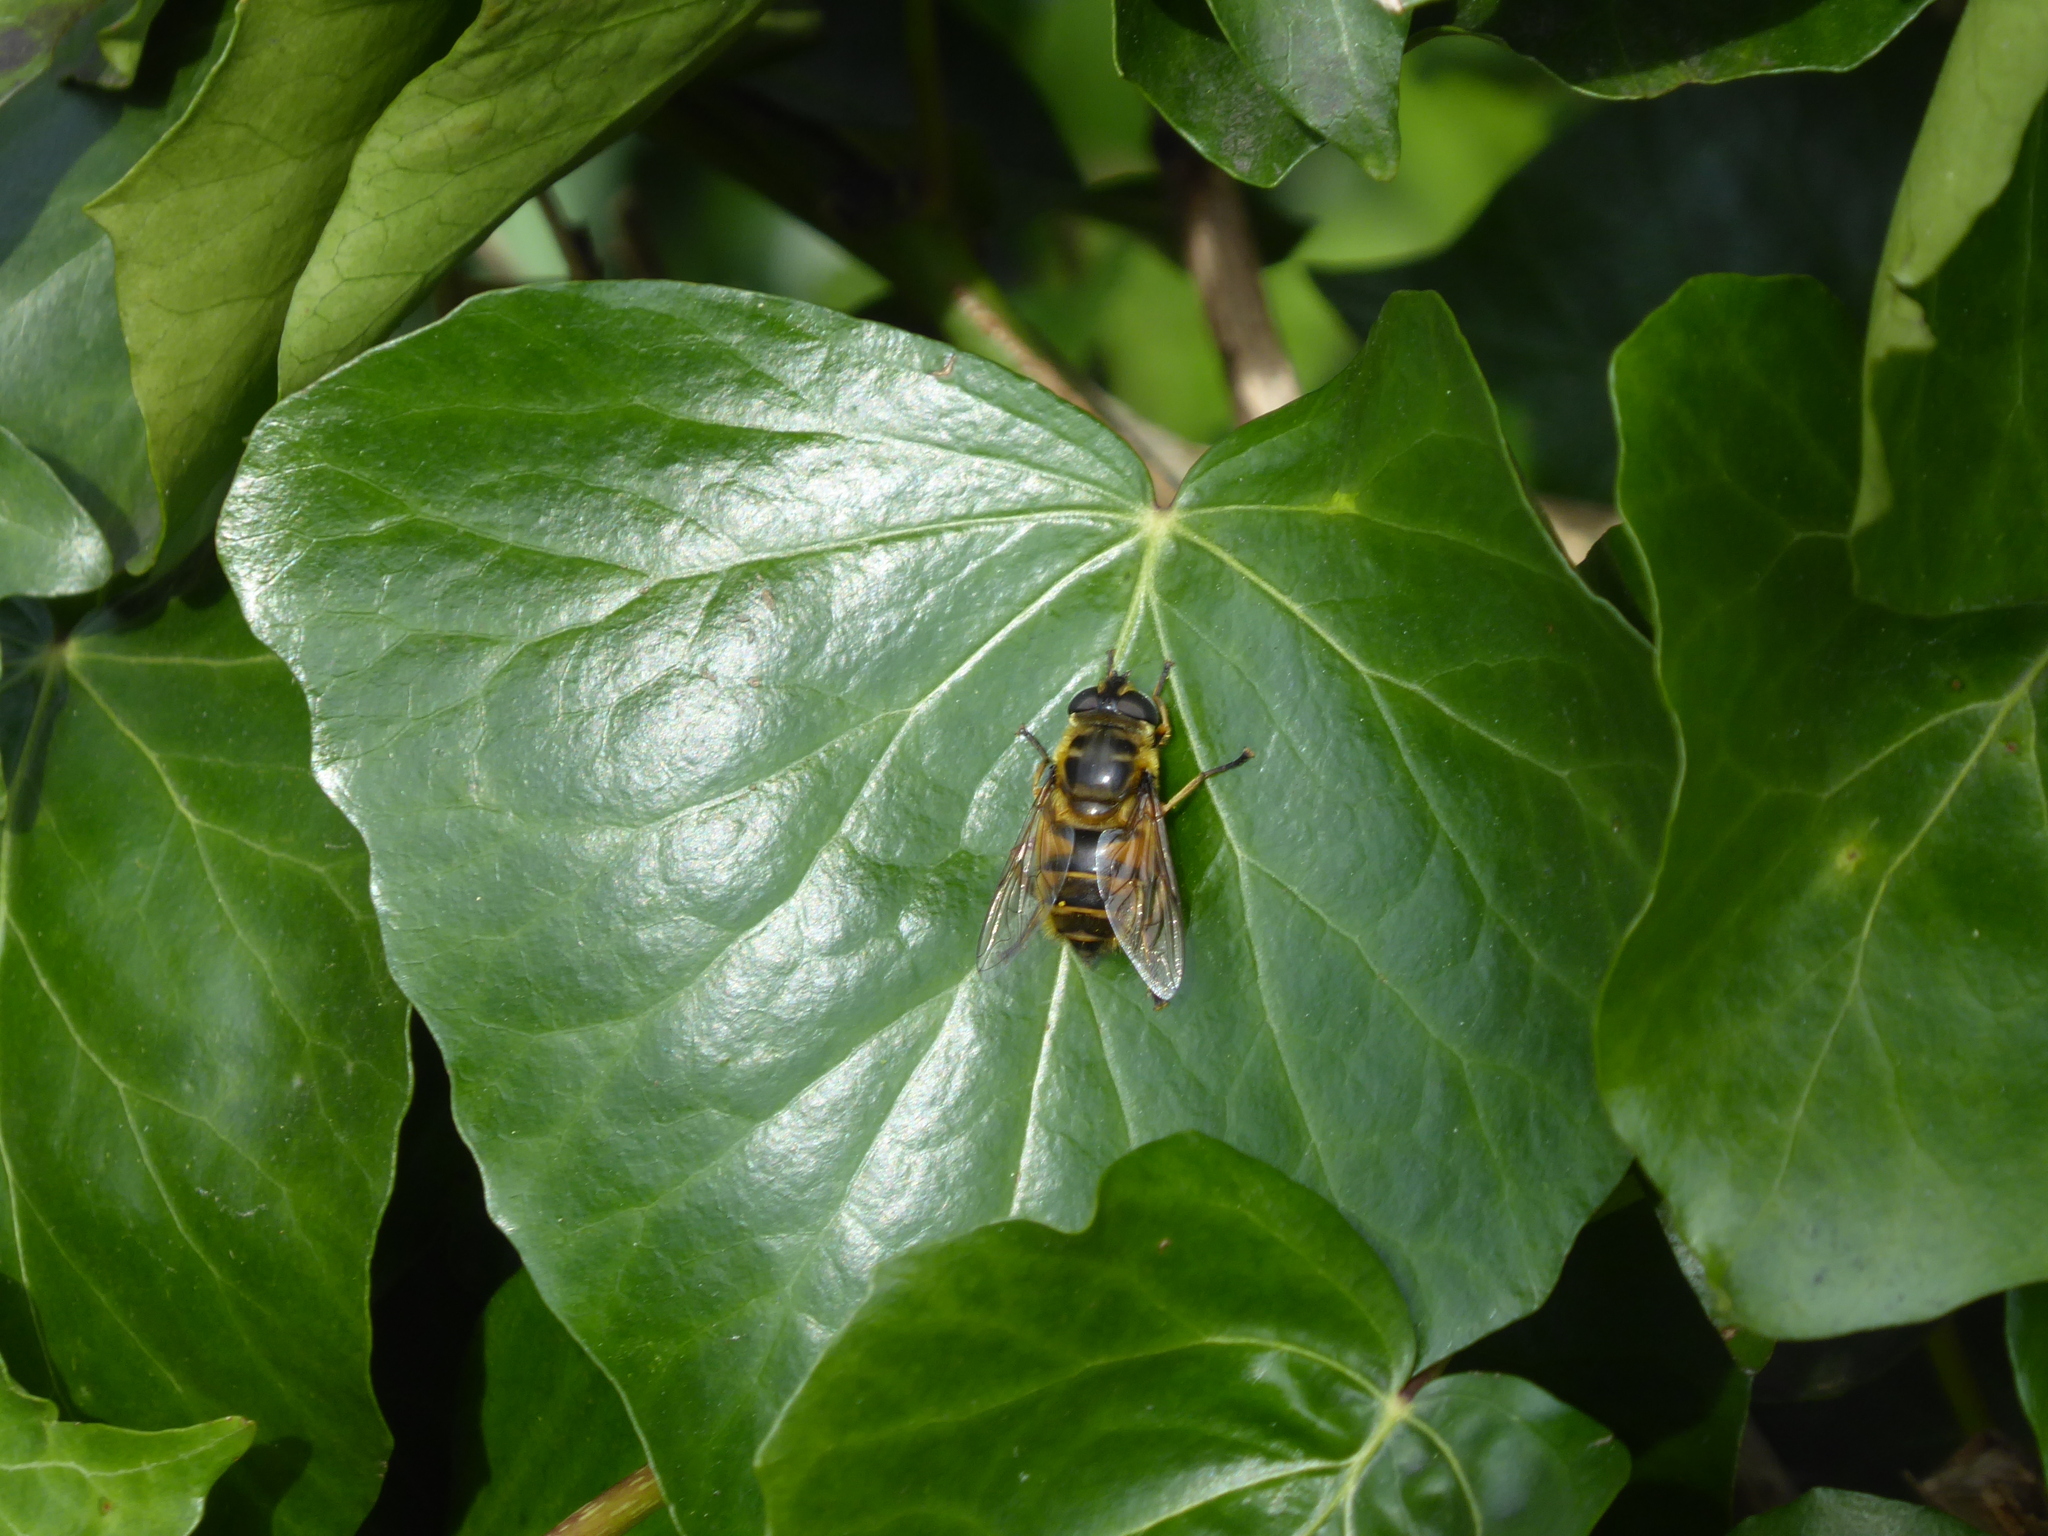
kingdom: Animalia
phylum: Arthropoda
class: Insecta
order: Diptera
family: Syrphidae
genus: Myathropa
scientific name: Myathropa florea
